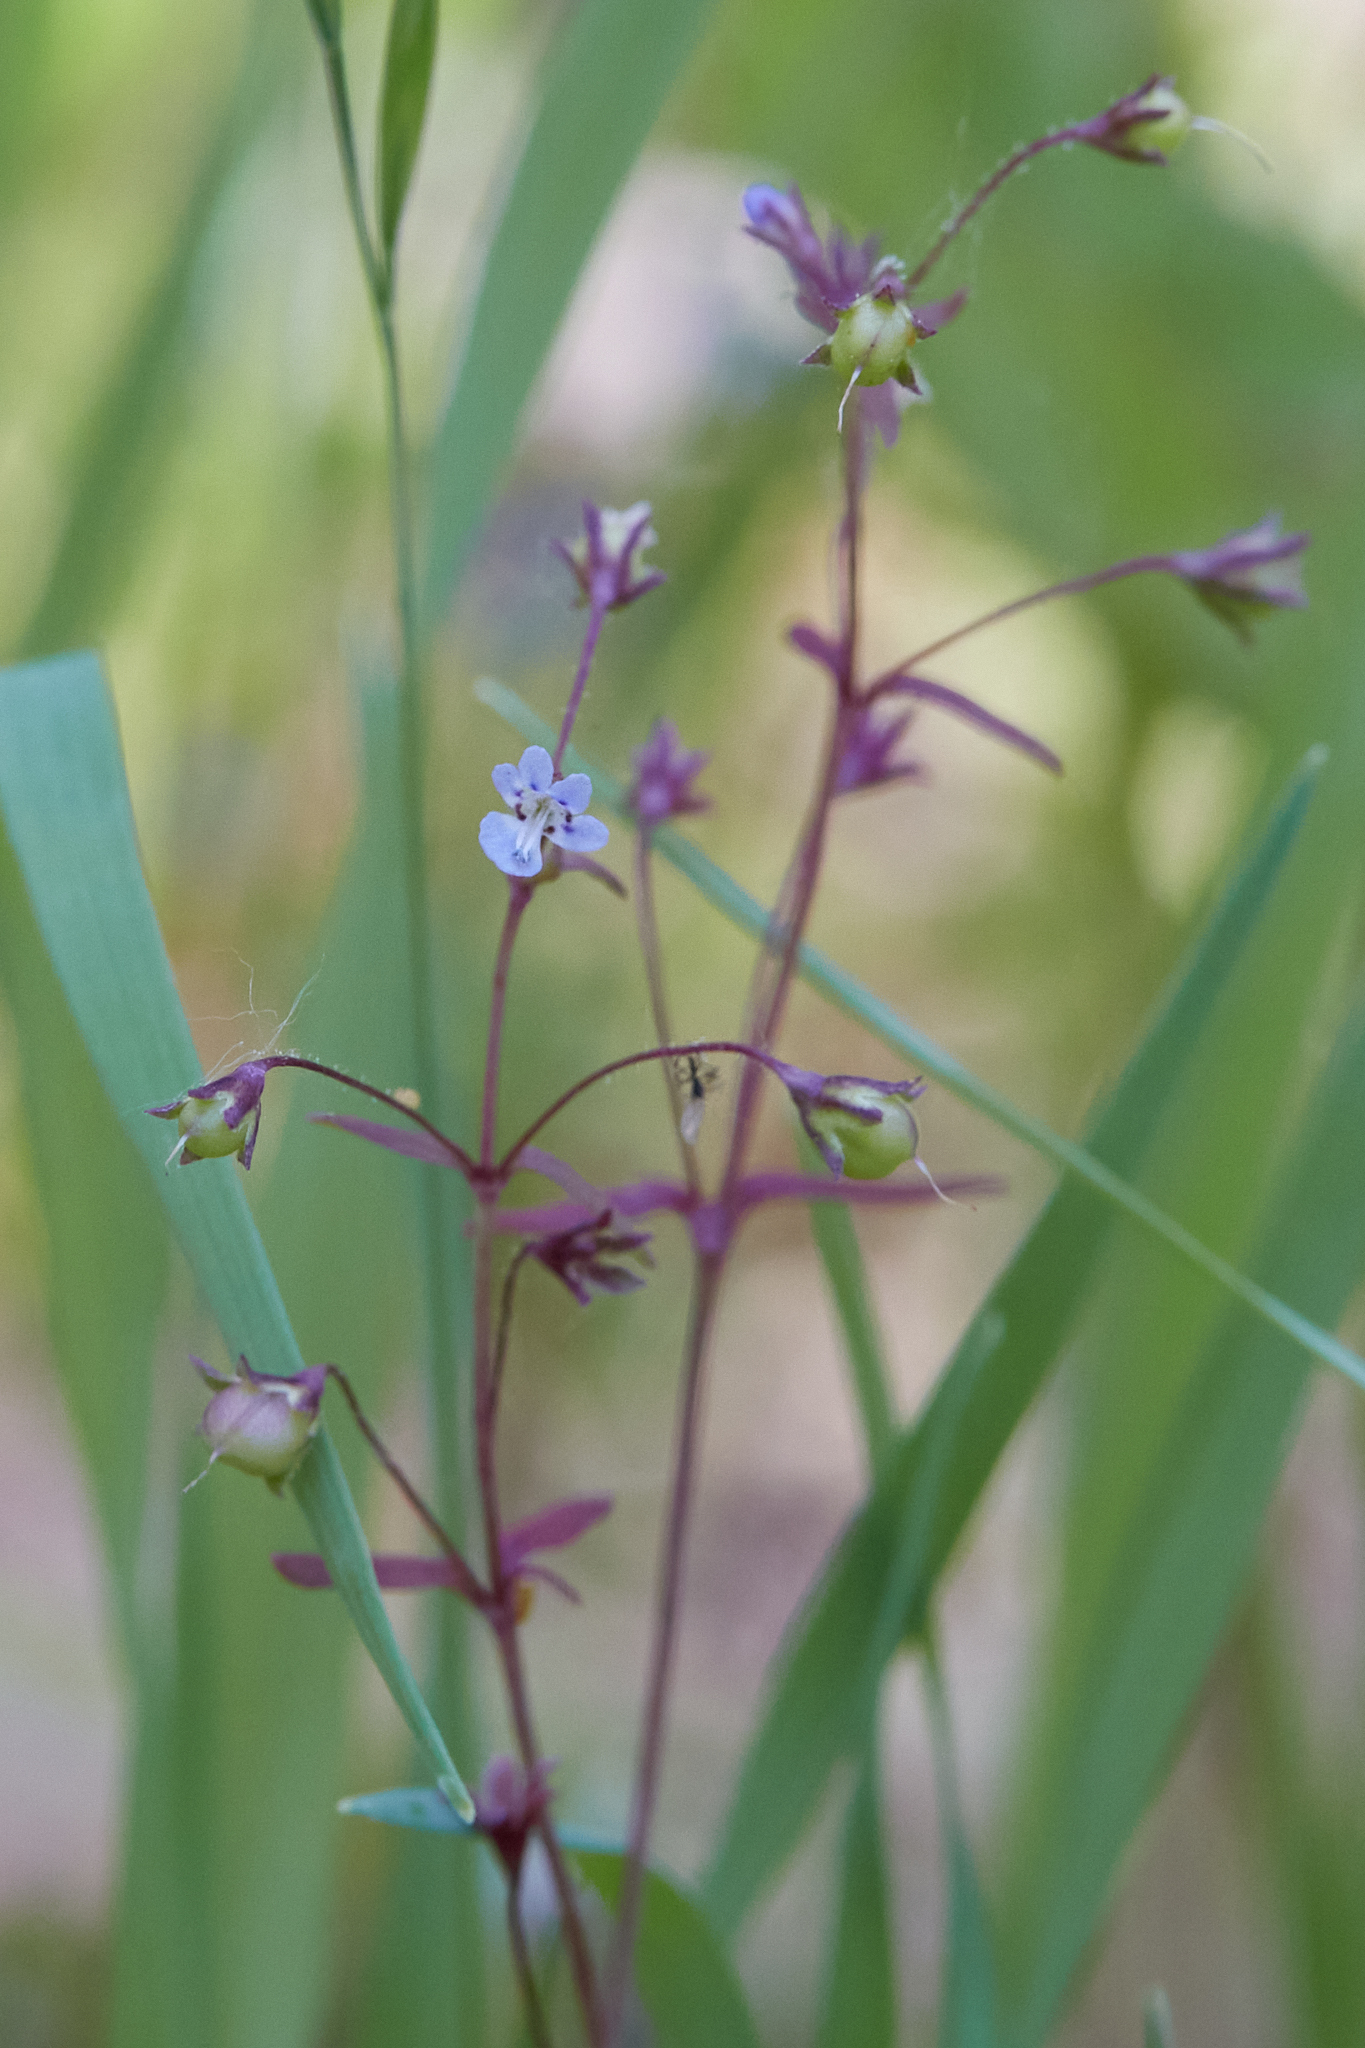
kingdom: Plantae
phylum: Tracheophyta
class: Magnoliopsida
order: Lamiales
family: Plantaginaceae
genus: Tonella
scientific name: Tonella tenella
